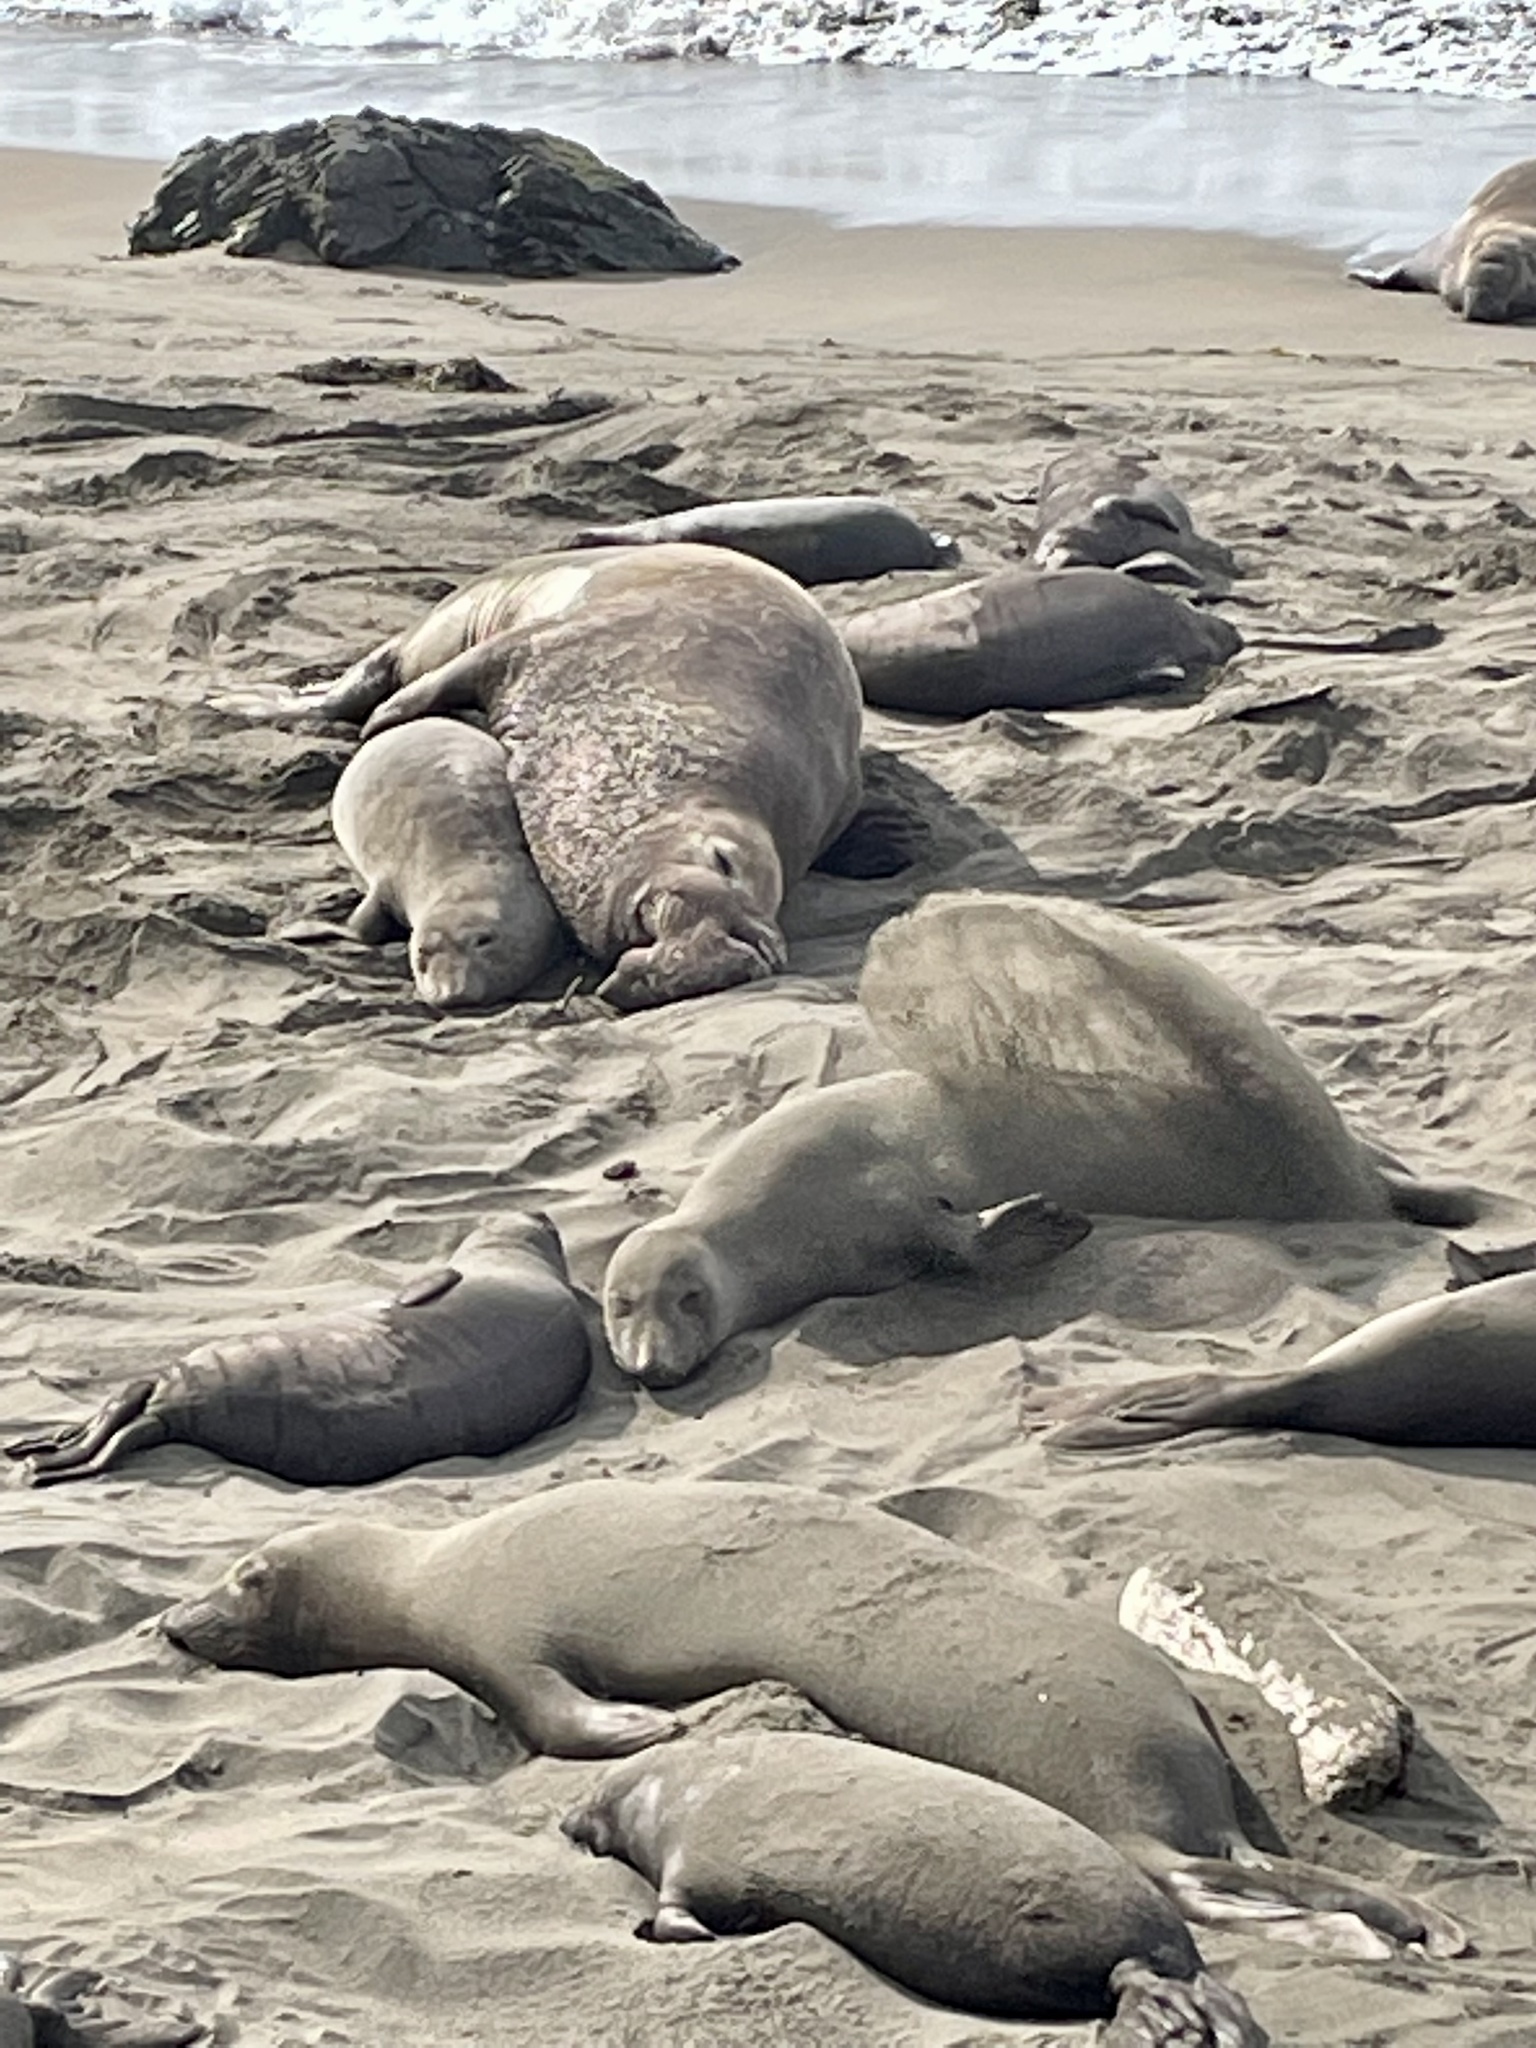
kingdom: Animalia
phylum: Chordata
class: Mammalia
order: Carnivora
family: Phocidae
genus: Mirounga
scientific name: Mirounga angustirostris
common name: Northern elephant seal
